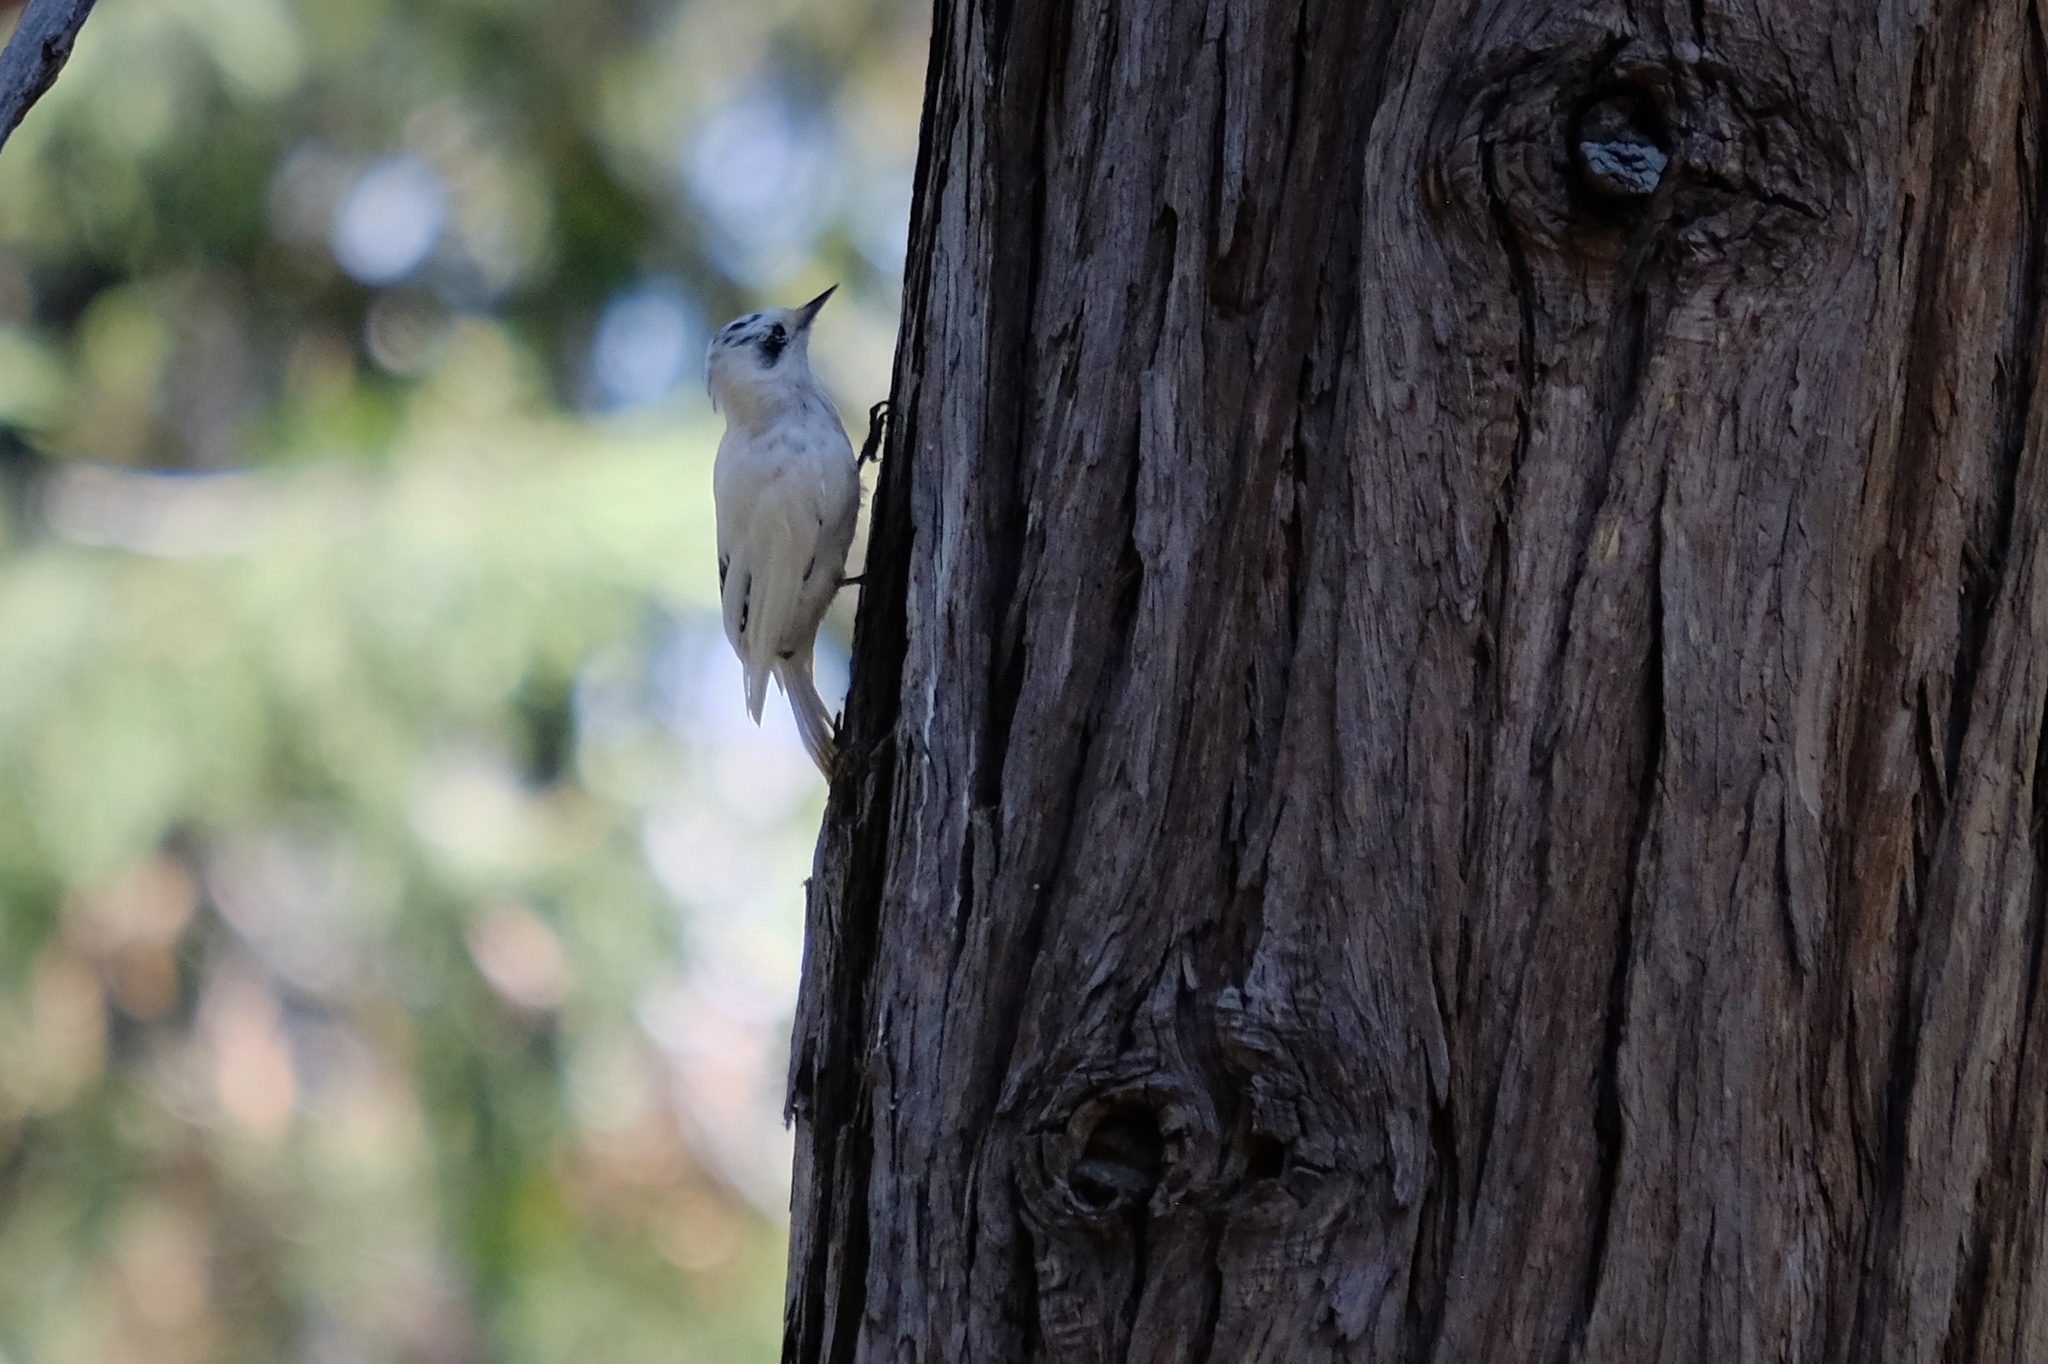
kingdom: Animalia
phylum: Chordata
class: Aves
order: Piciformes
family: Picidae
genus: Dryobates
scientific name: Dryobates
